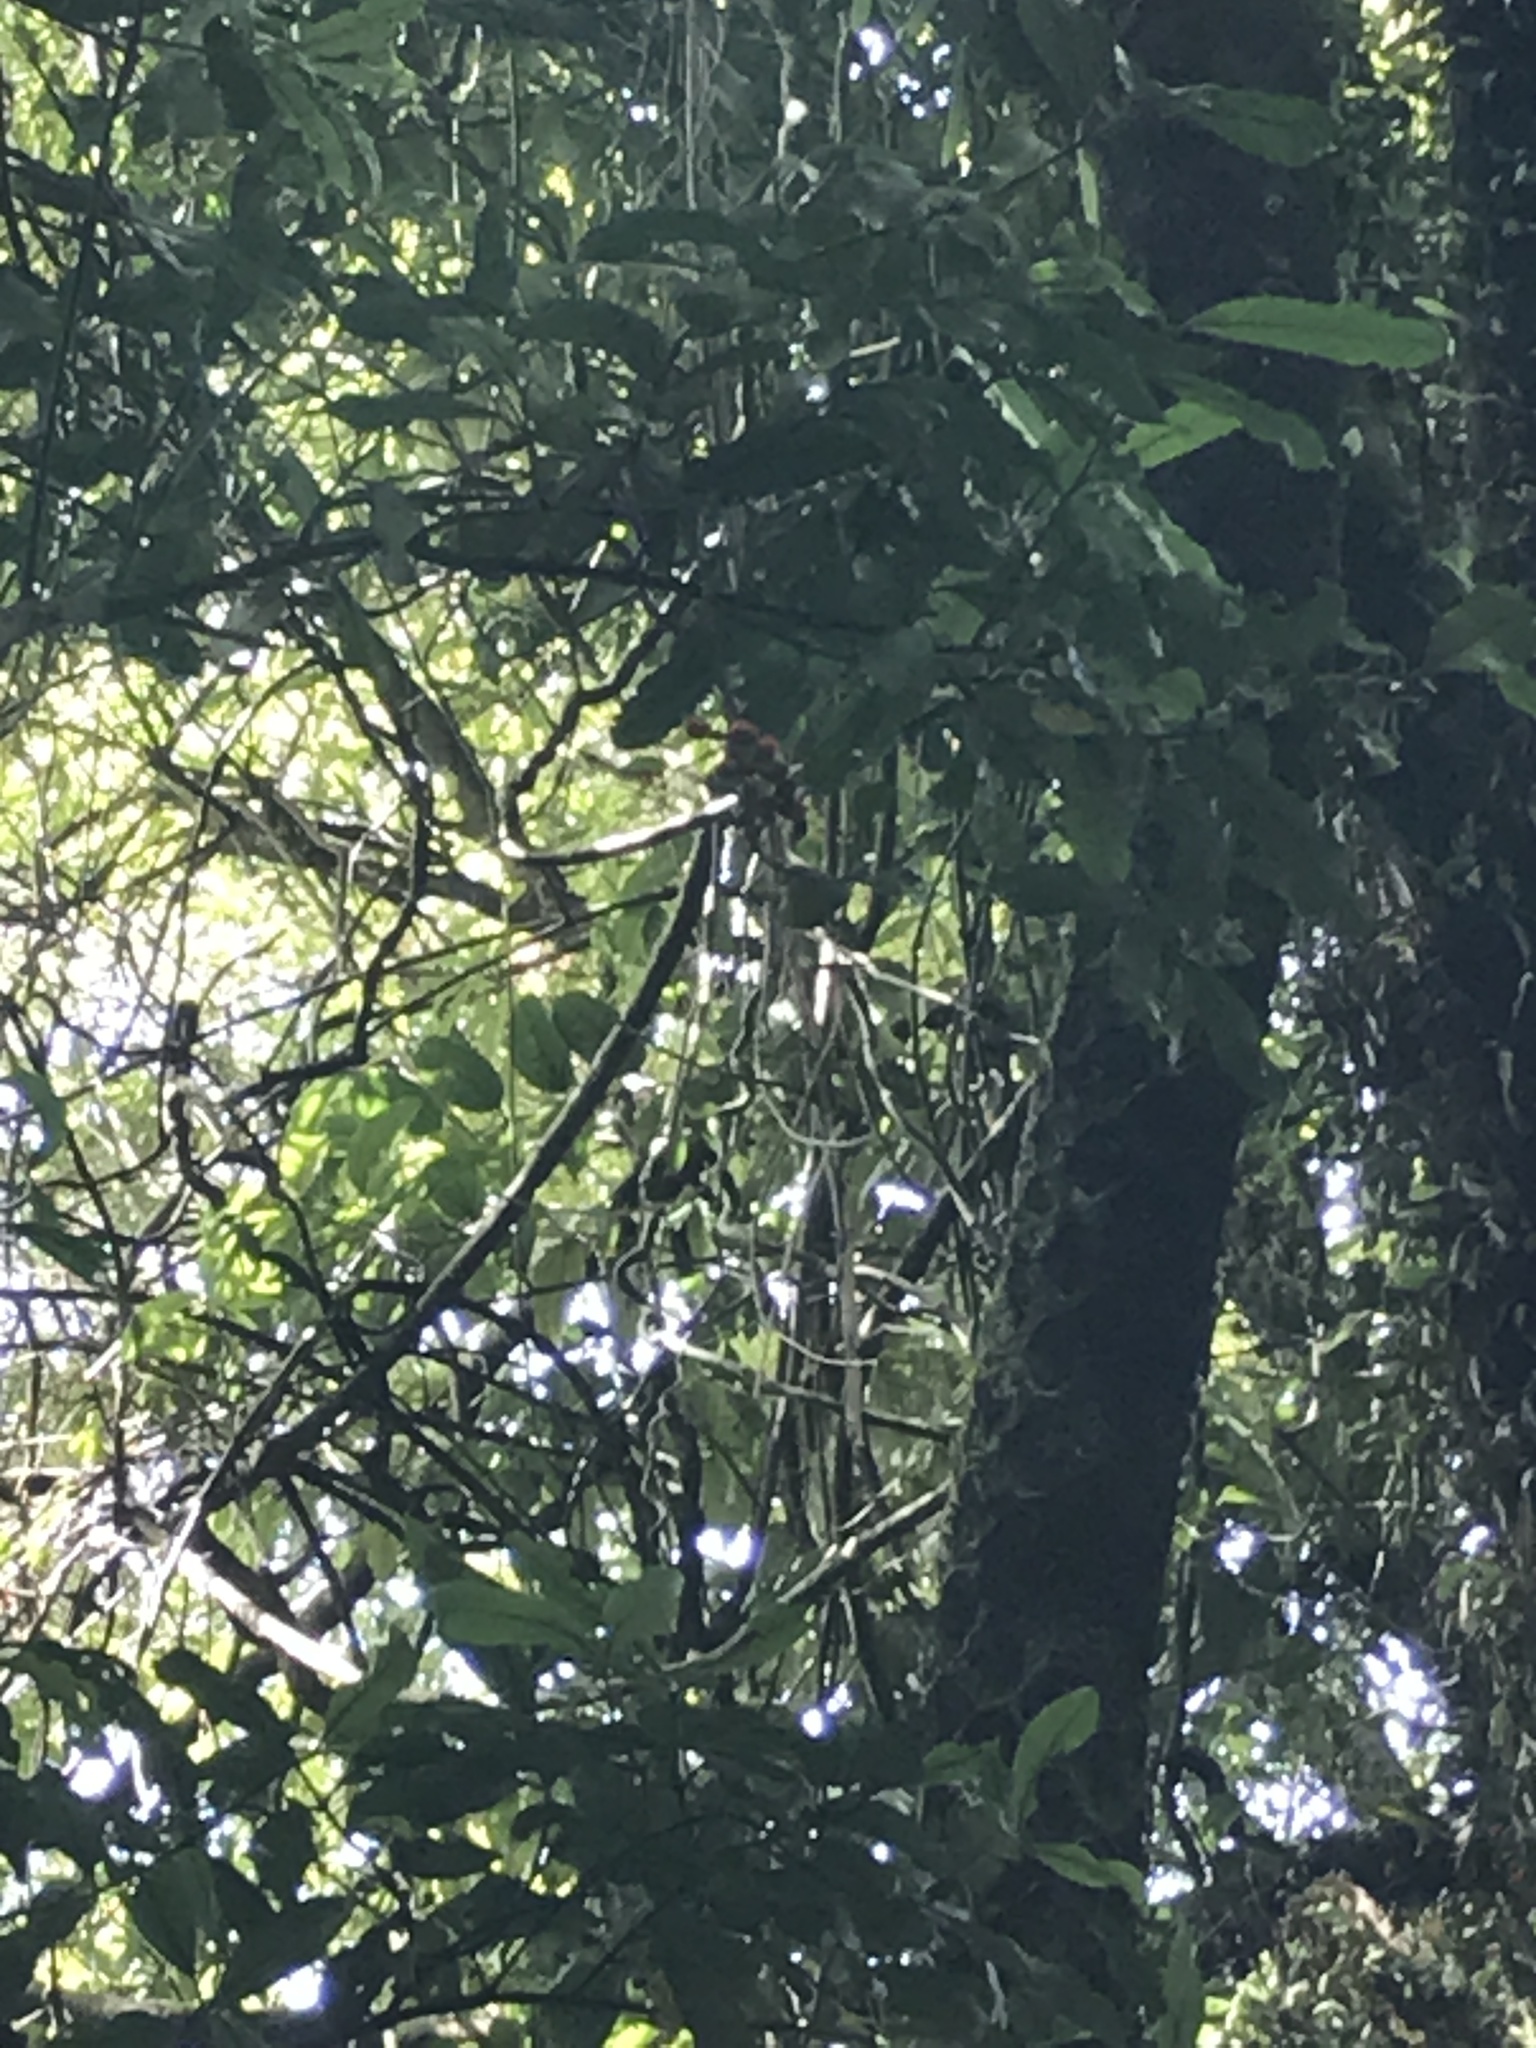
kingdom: Plantae
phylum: Tracheophyta
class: Magnoliopsida
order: Oxalidales
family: Elaeocarpaceae
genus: Elaeocarpus
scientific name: Elaeocarpus dentatus
